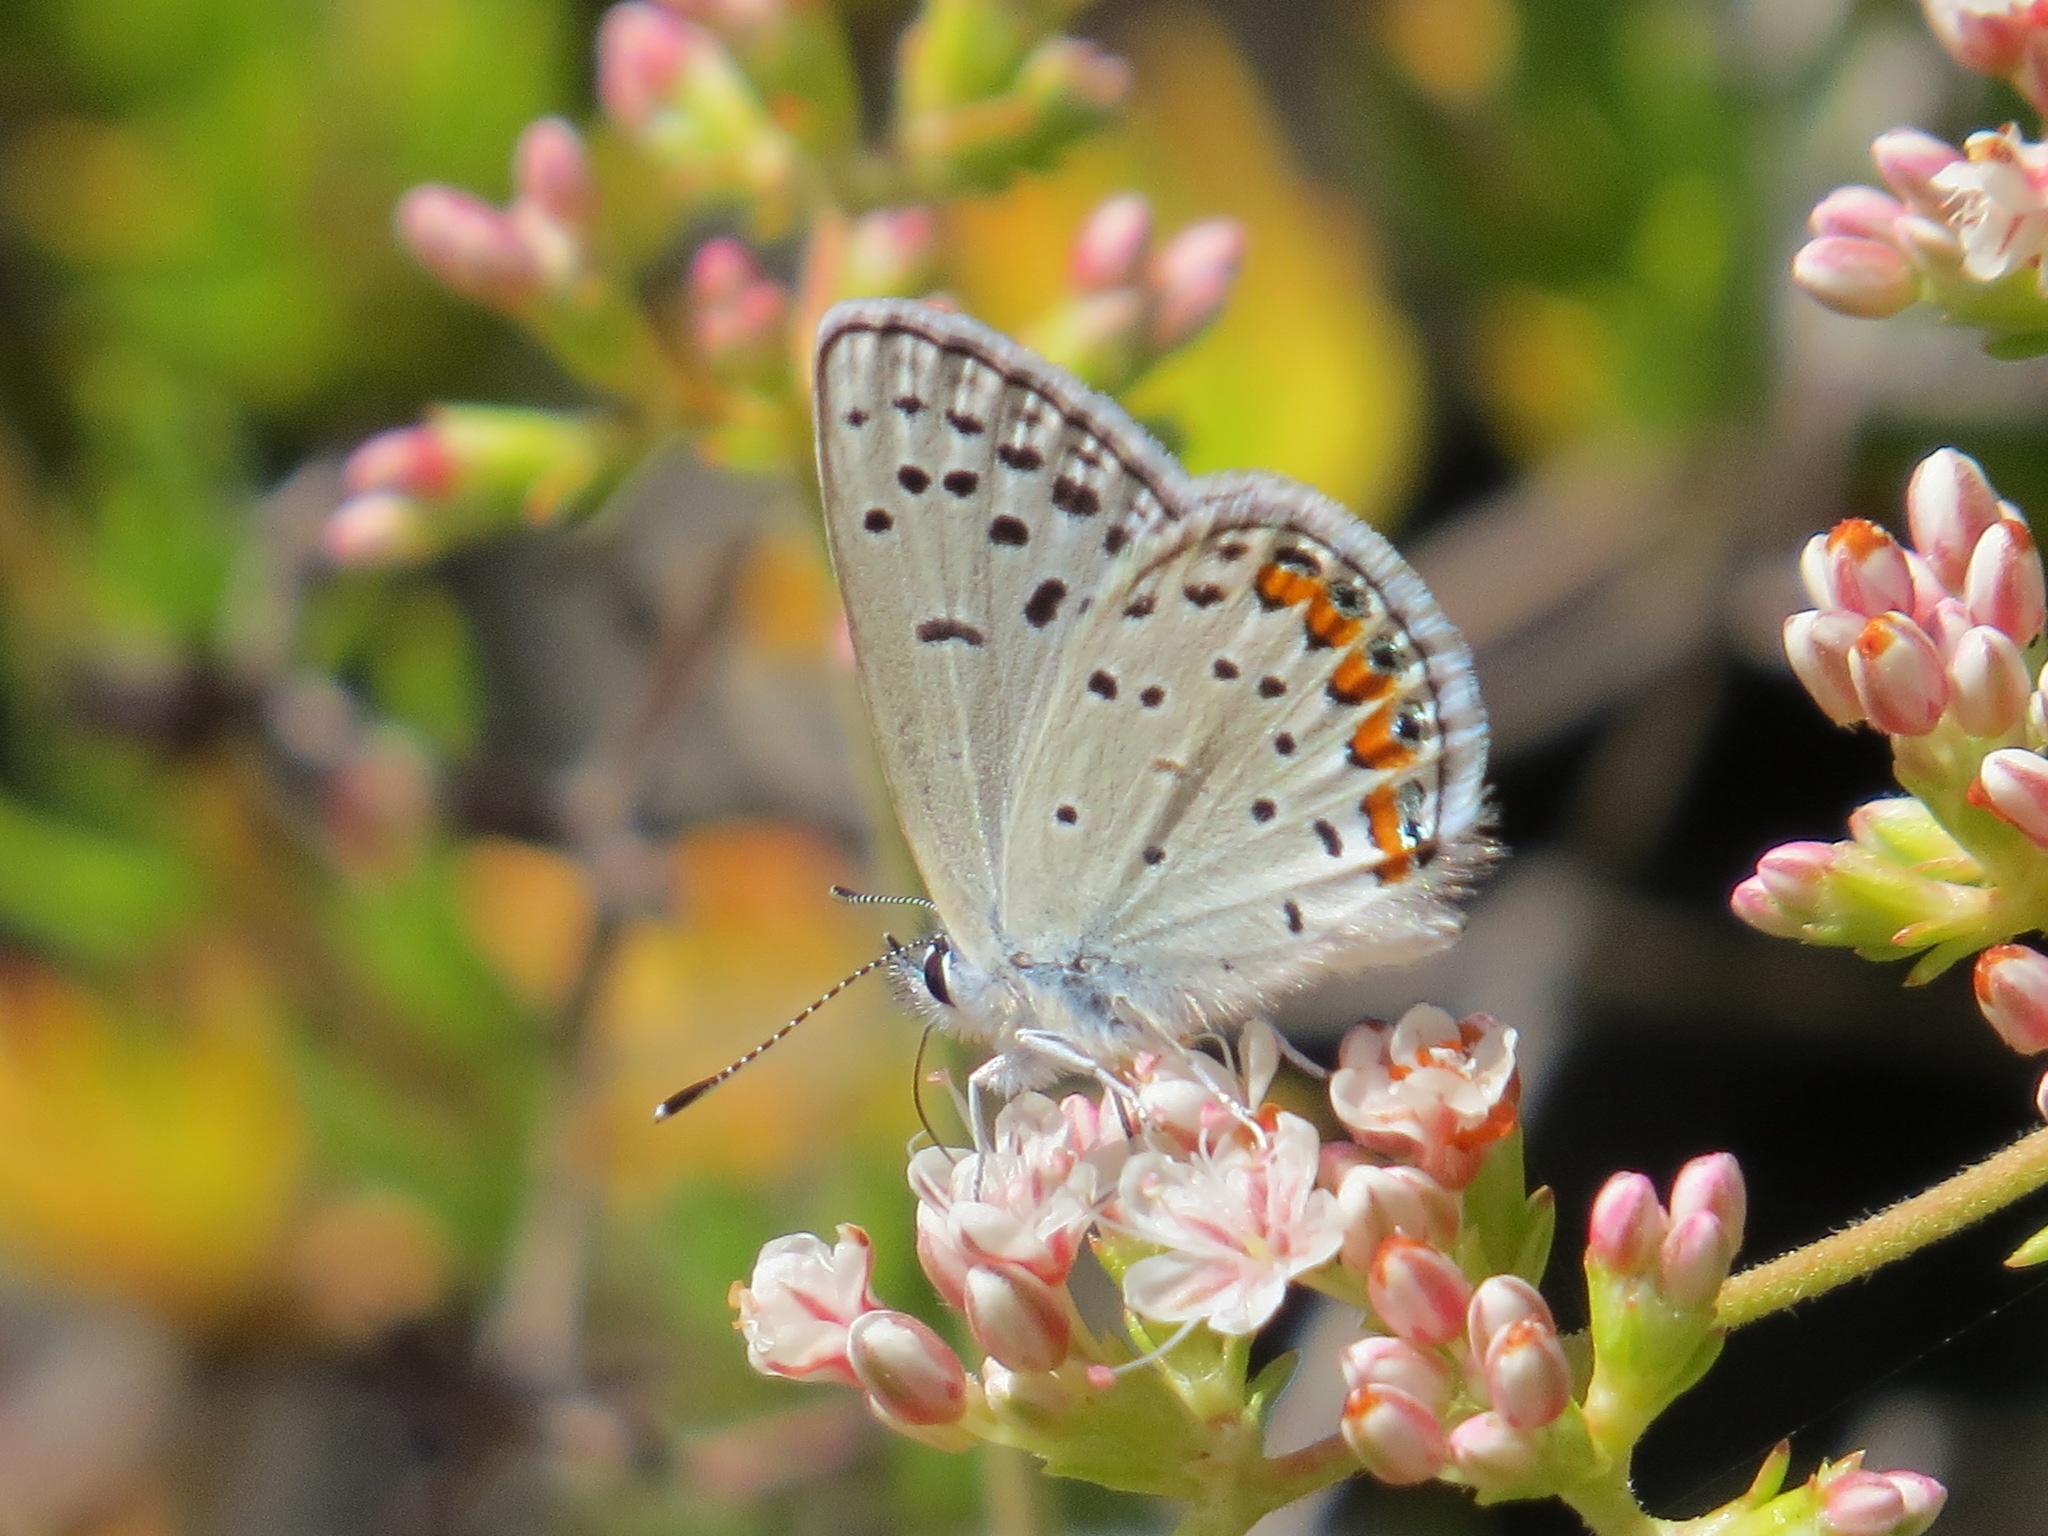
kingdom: Animalia
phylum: Arthropoda
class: Insecta
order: Lepidoptera
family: Lycaenidae
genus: Icaricia
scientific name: Icaricia acmon
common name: Acmon blue
